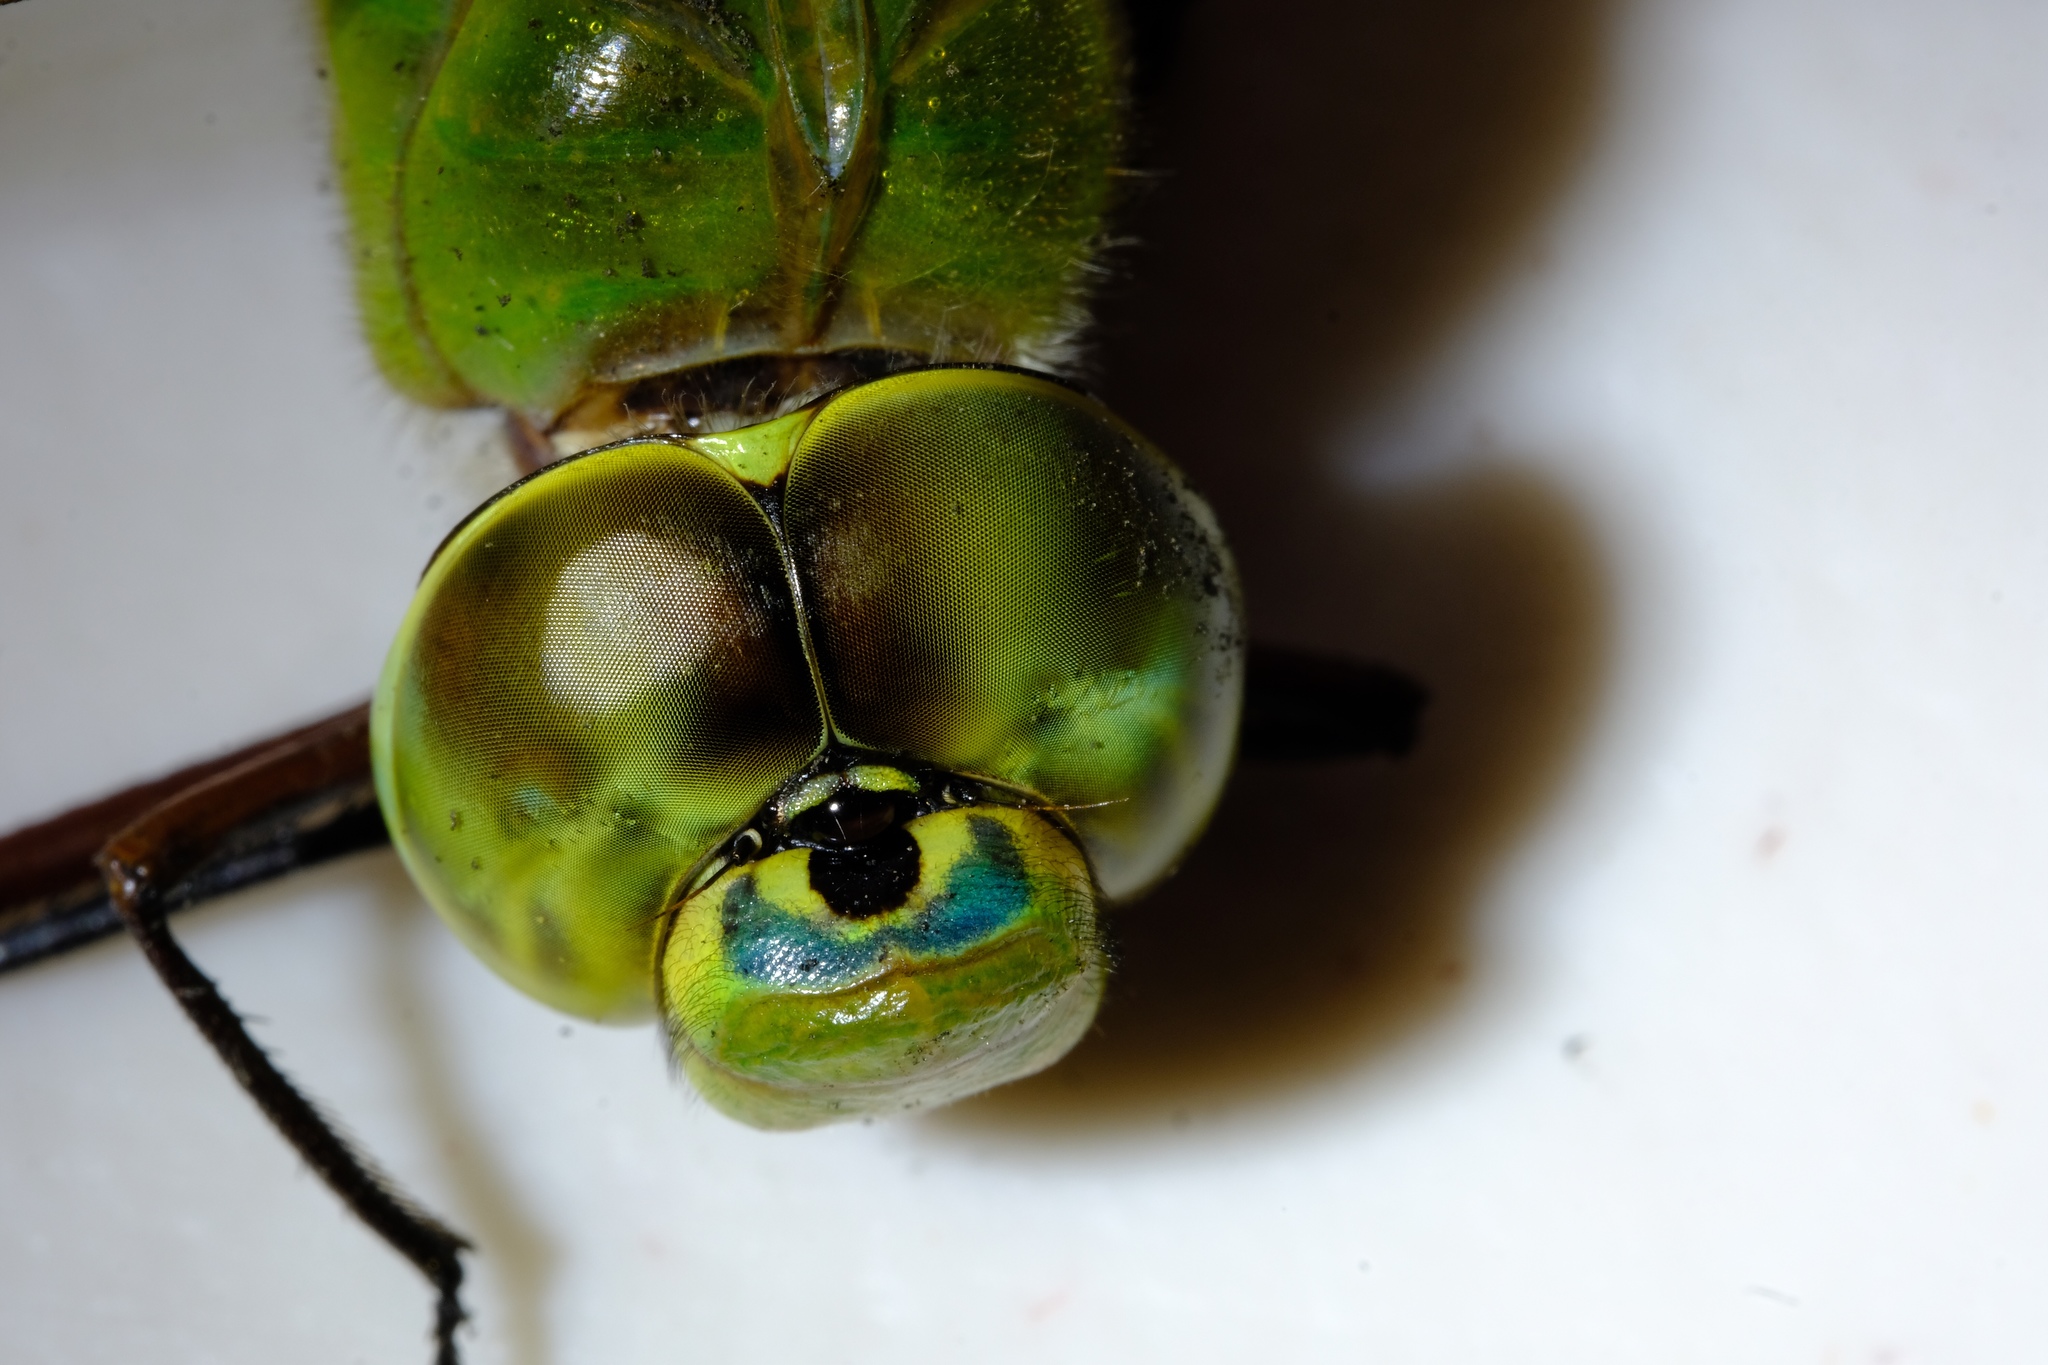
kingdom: Animalia
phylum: Arthropoda
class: Insecta
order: Odonata
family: Aeshnidae
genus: Anax
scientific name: Anax junius
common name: Common green darner
